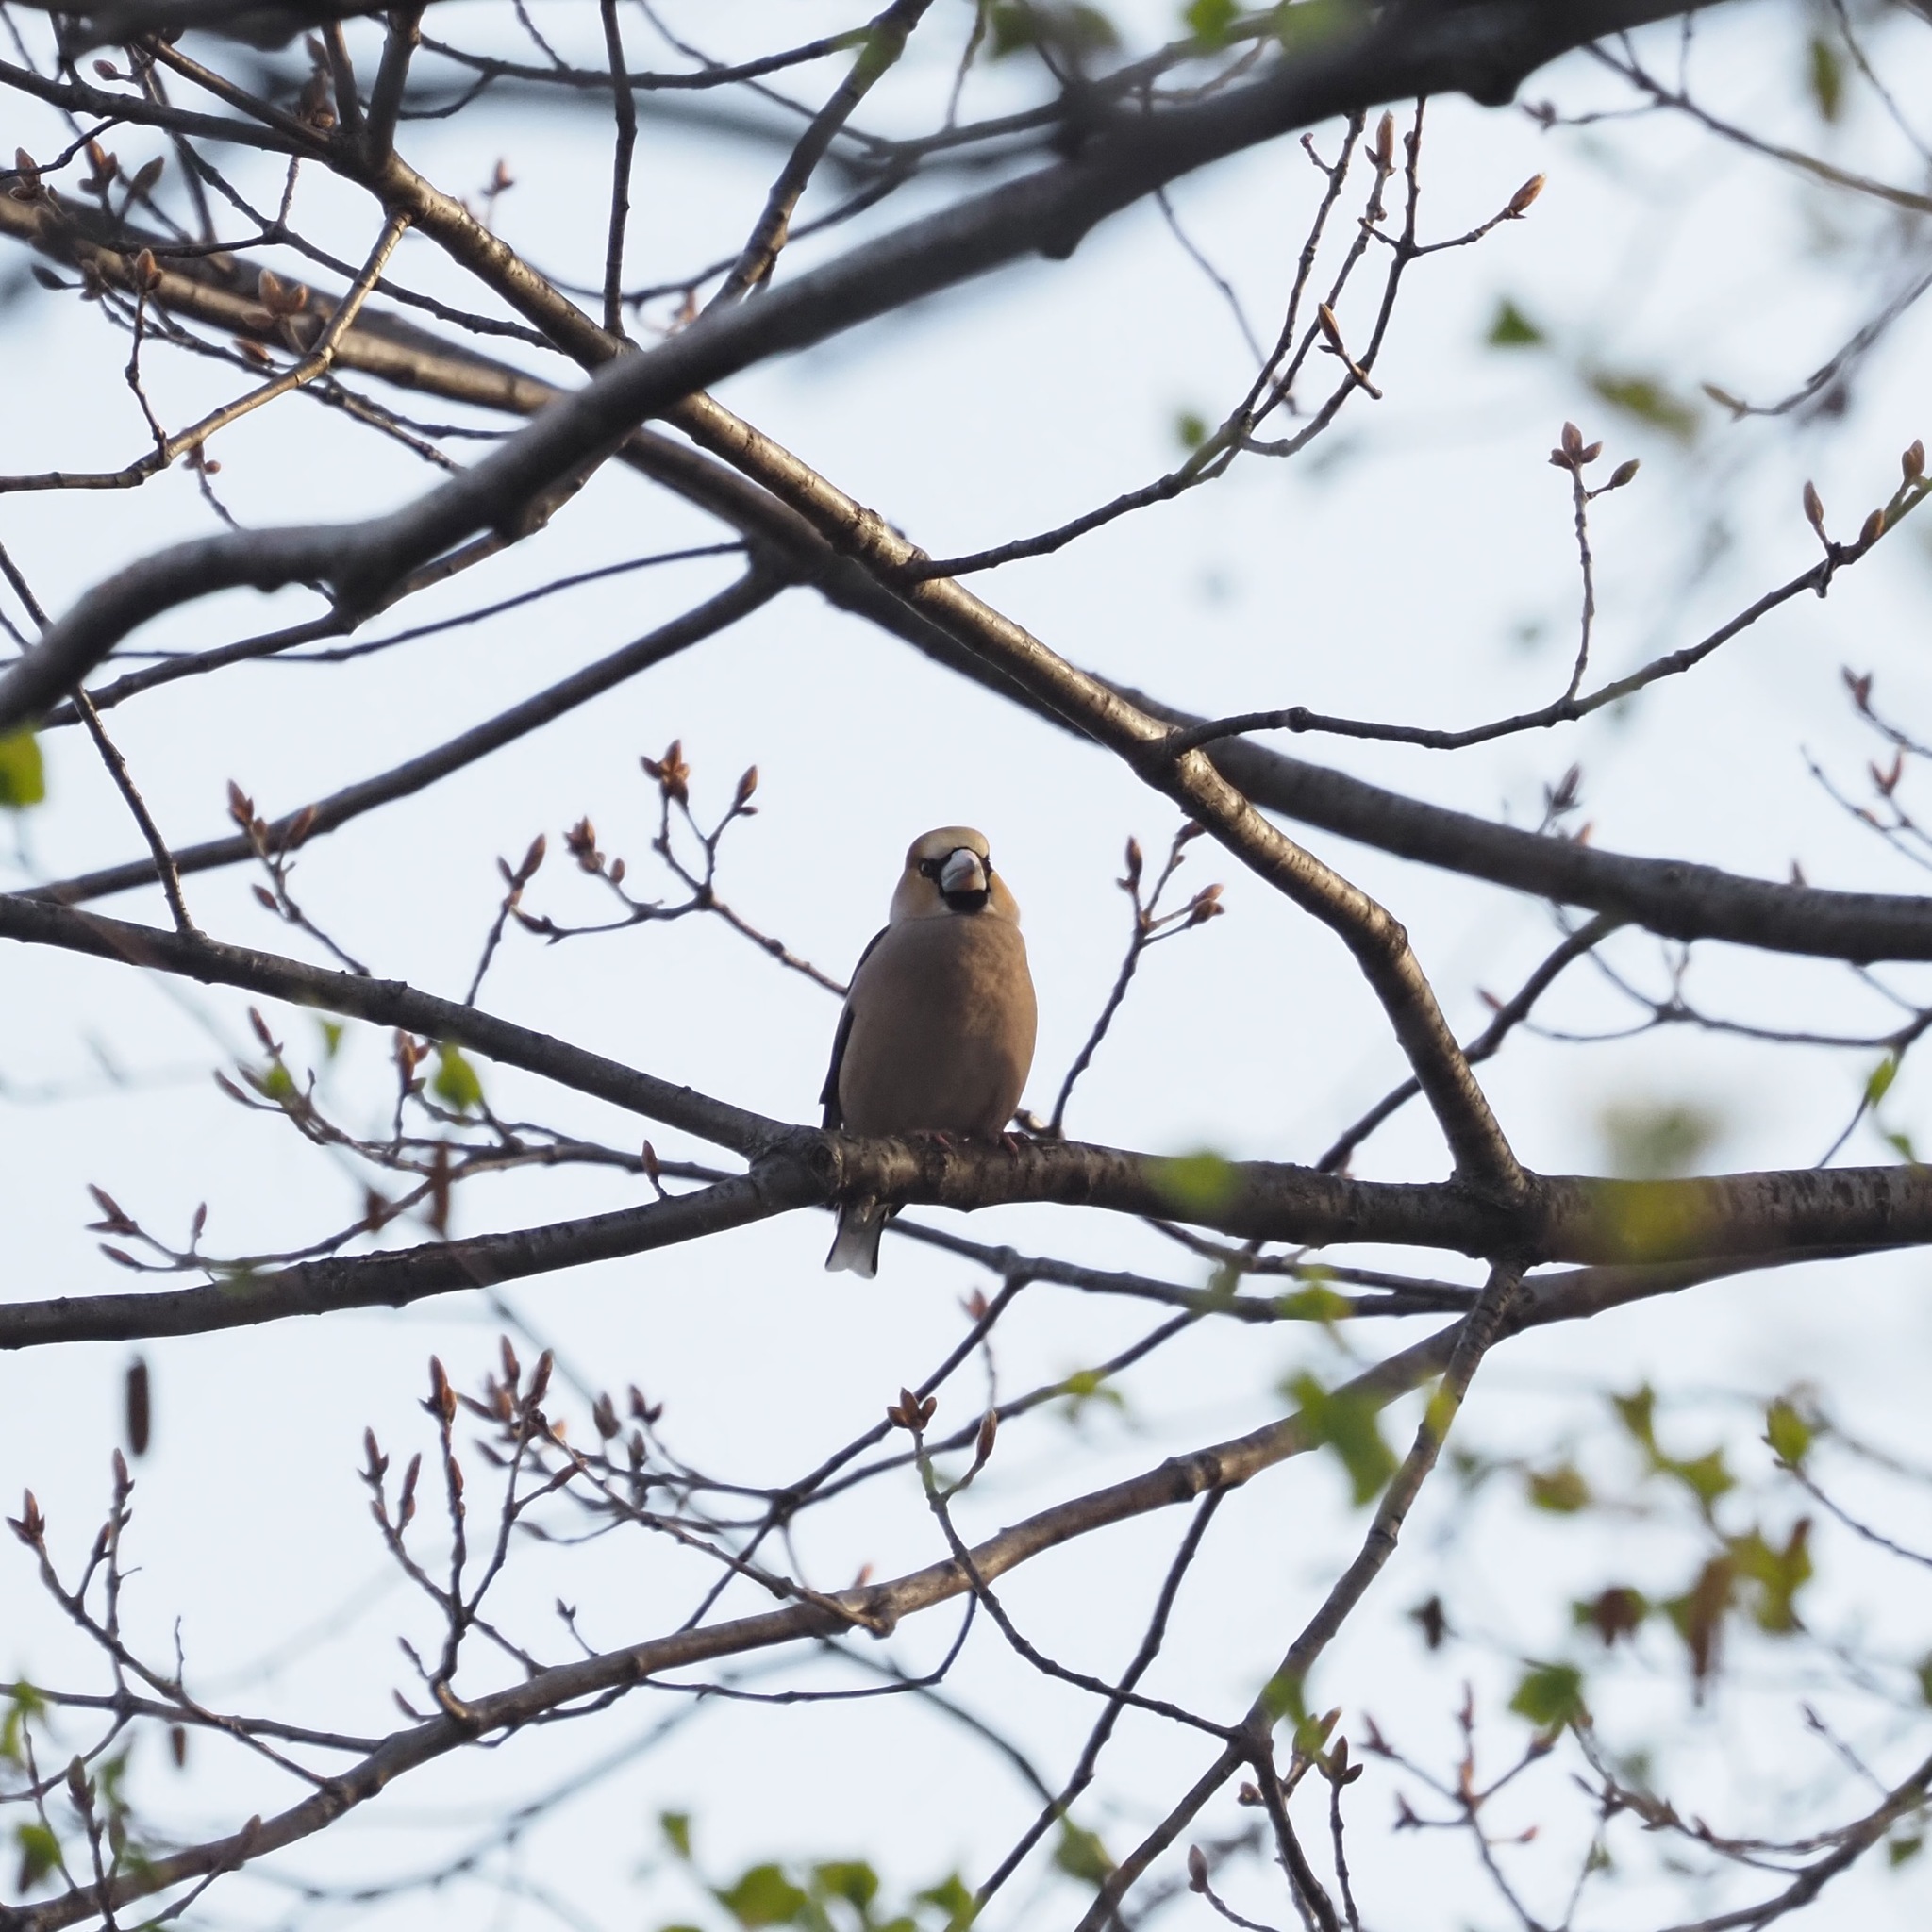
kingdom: Animalia
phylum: Chordata
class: Aves
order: Passeriformes
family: Fringillidae
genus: Coccothraustes
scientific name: Coccothraustes coccothraustes
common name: Hawfinch
